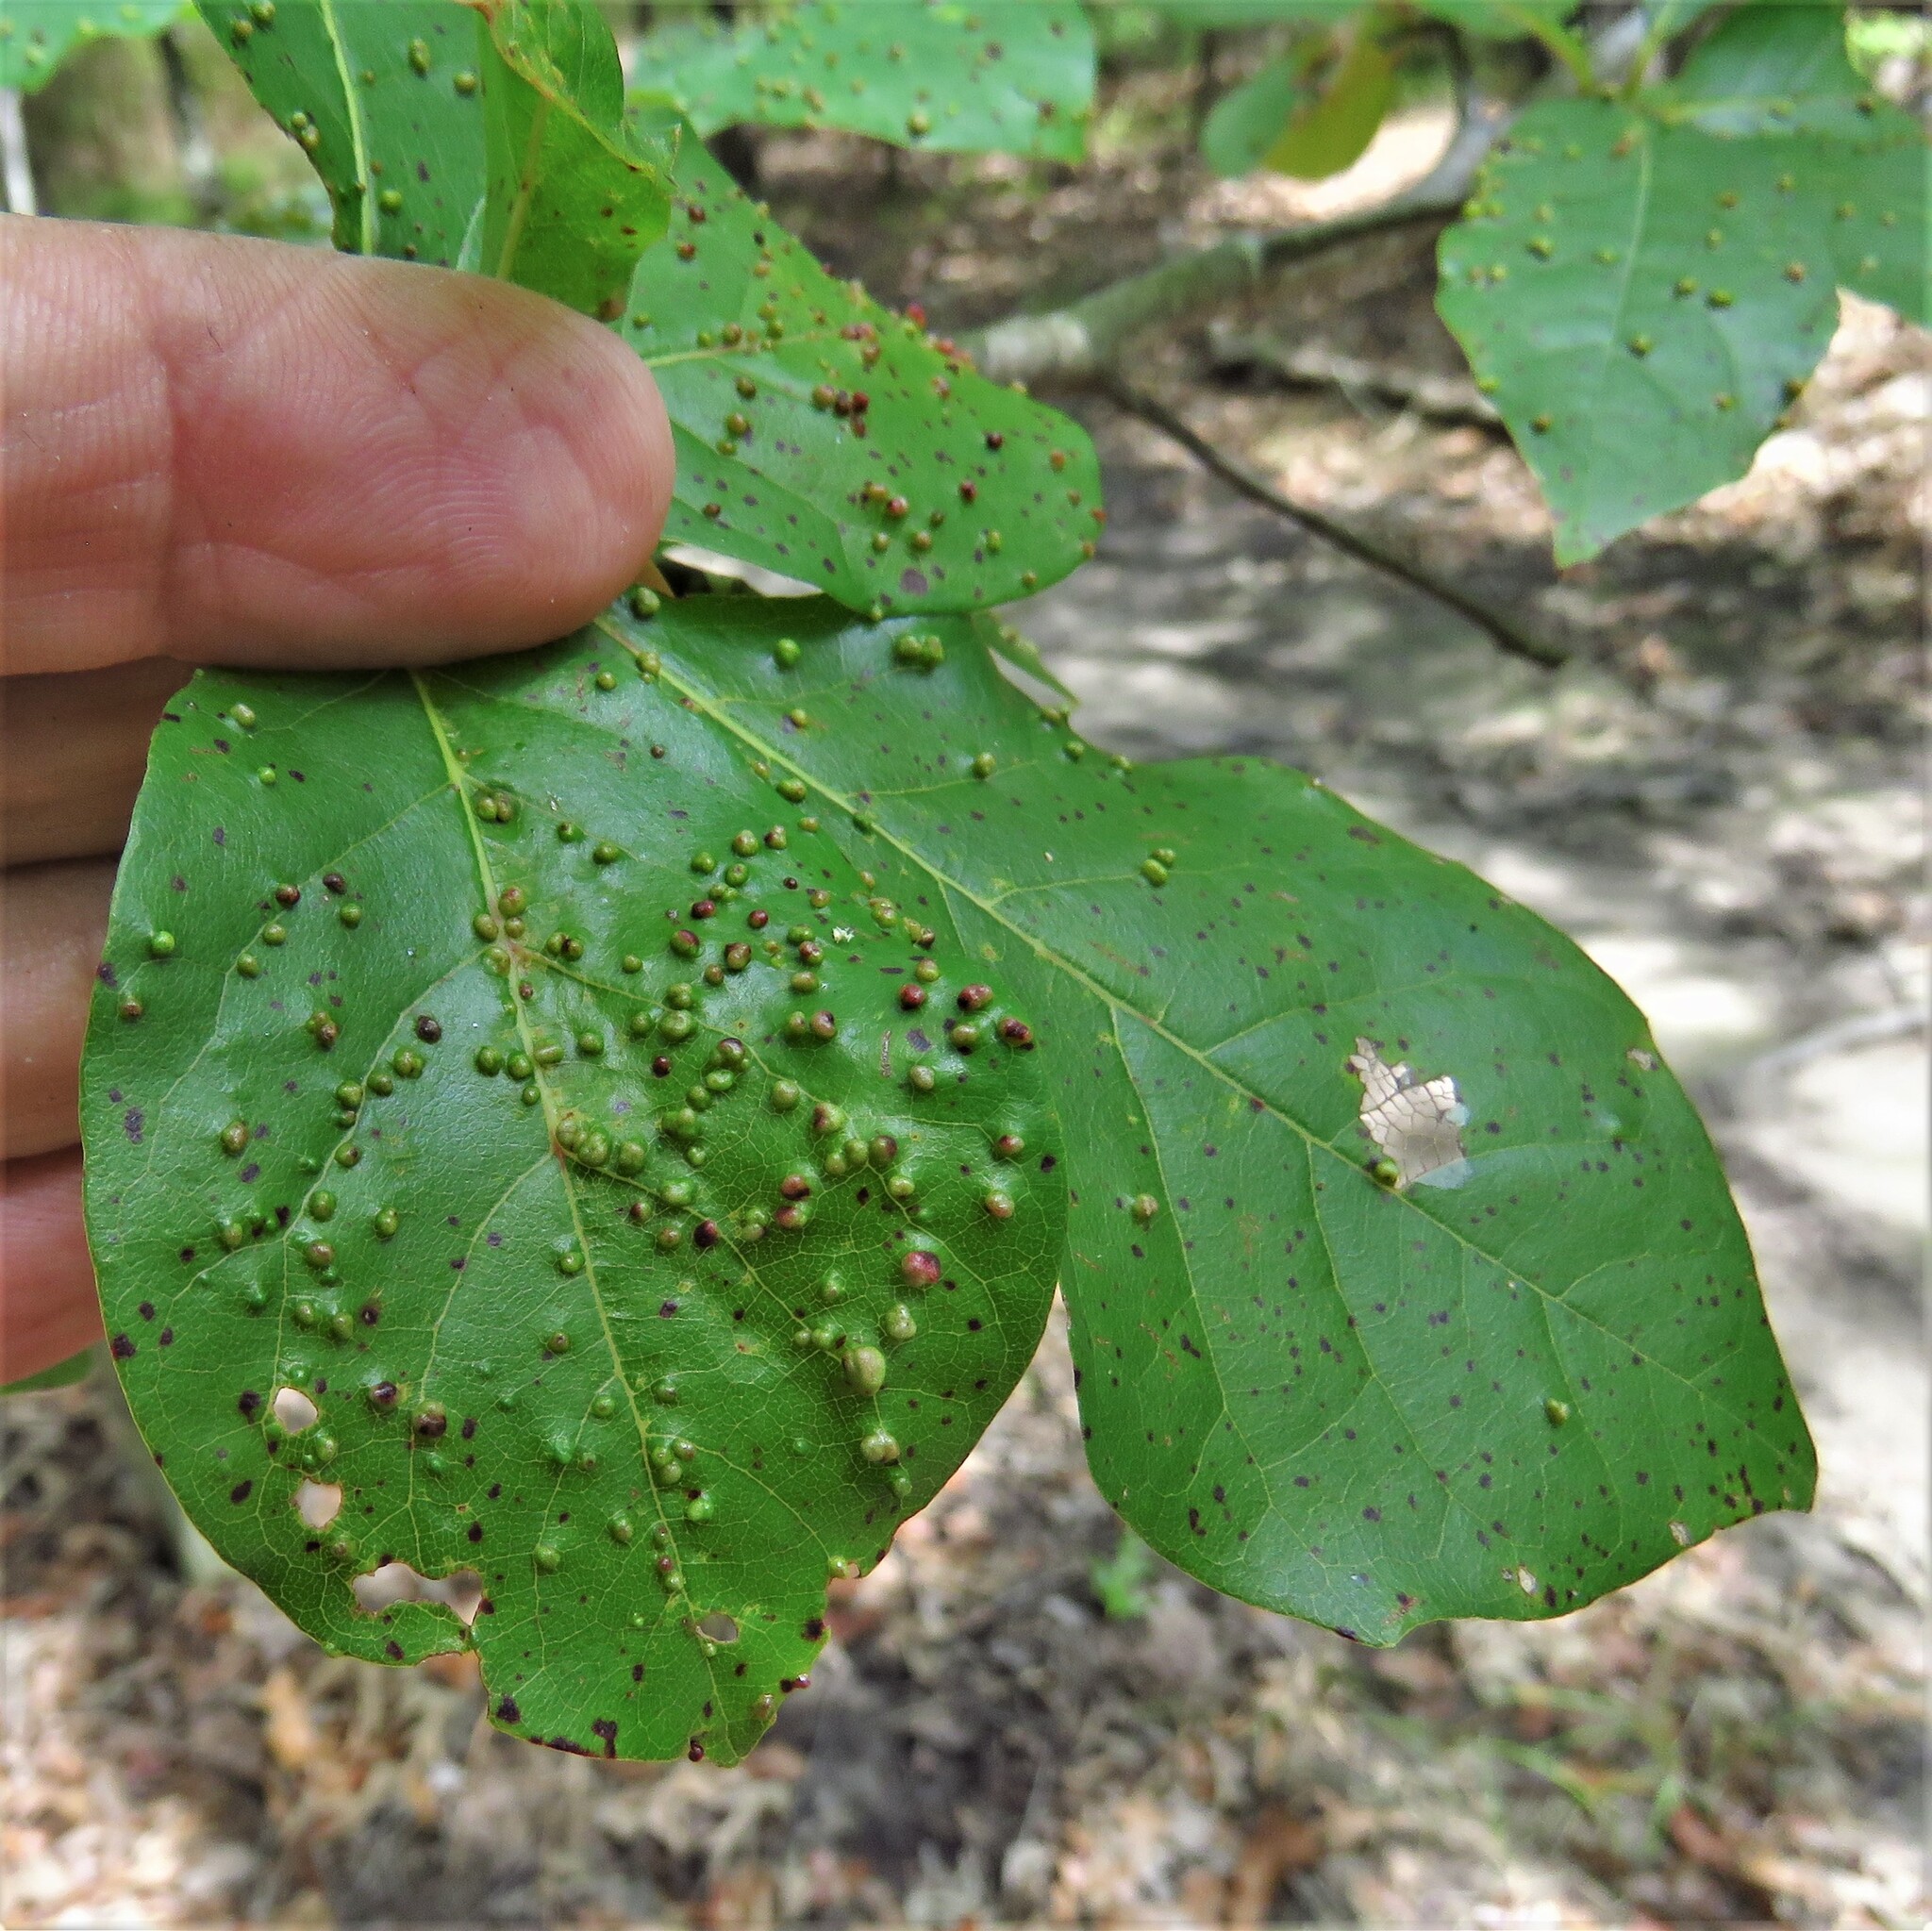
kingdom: Animalia
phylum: Arthropoda
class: Arachnida
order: Trombidiformes
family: Eriophyidae
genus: Aceria
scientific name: Aceria
